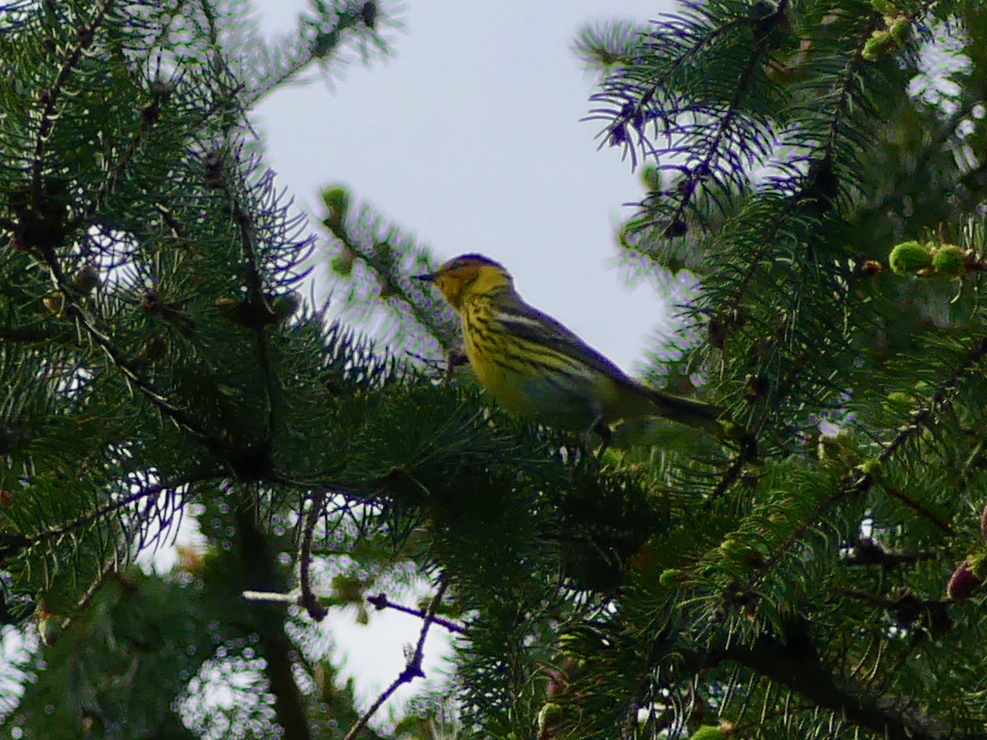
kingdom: Animalia
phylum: Chordata
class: Aves
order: Passeriformes
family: Parulidae
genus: Setophaga
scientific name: Setophaga tigrina
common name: Cape may warbler
